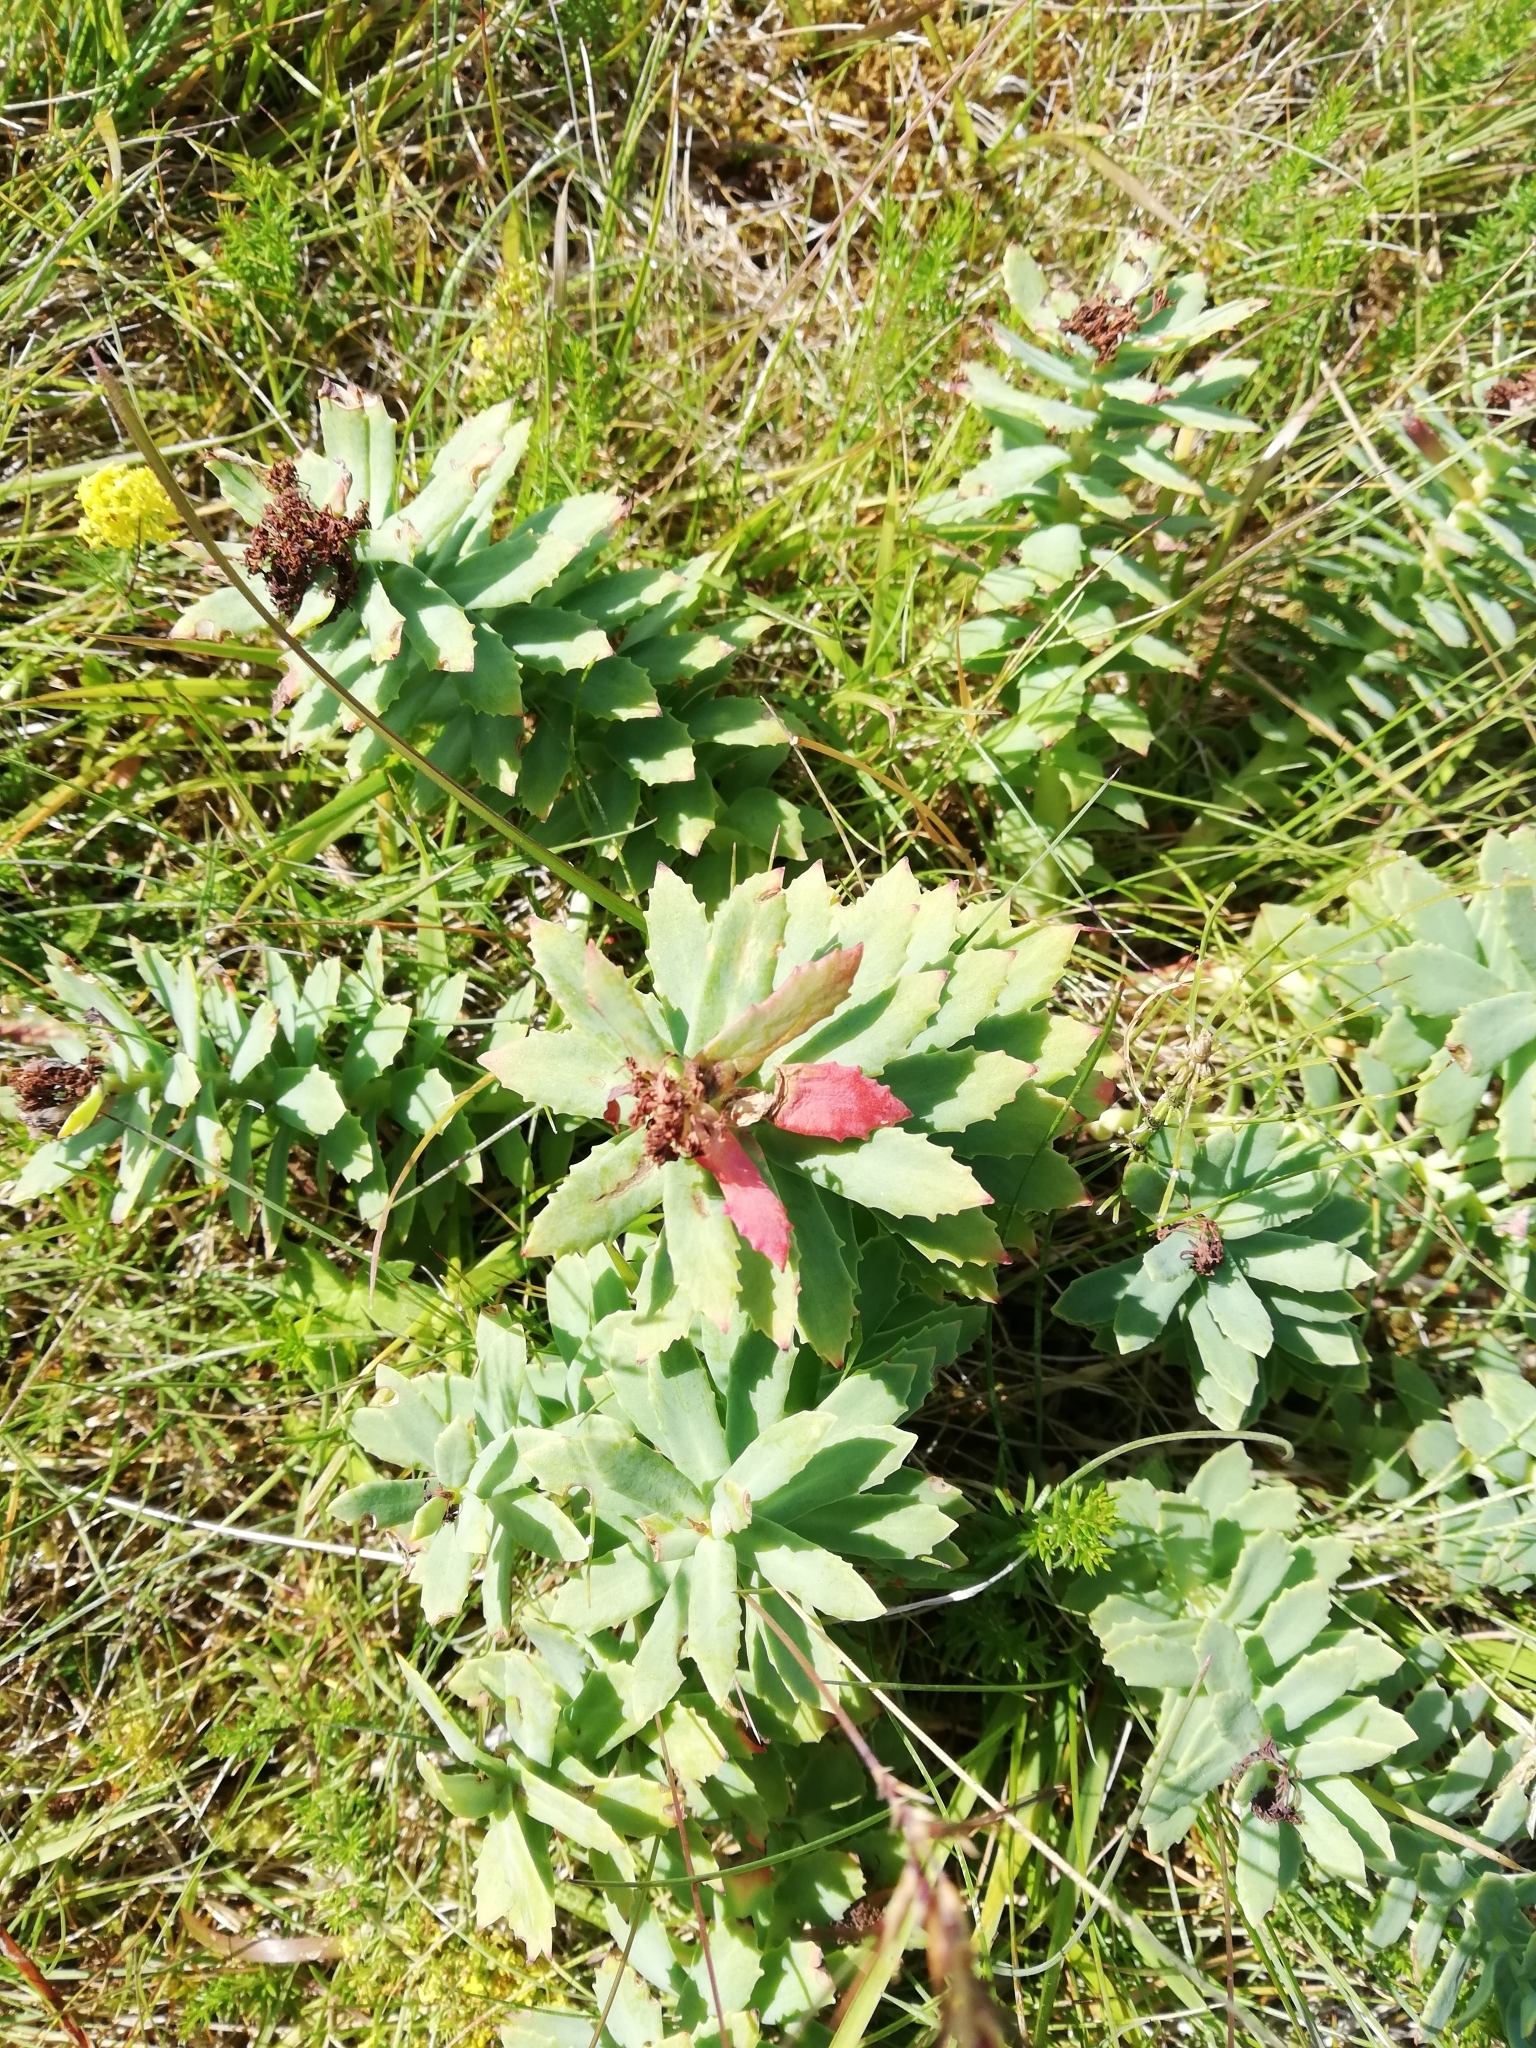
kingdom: Plantae
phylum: Tracheophyta
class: Magnoliopsida
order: Saxifragales
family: Crassulaceae
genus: Rhodiola
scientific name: Rhodiola rosea
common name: Roseroot
